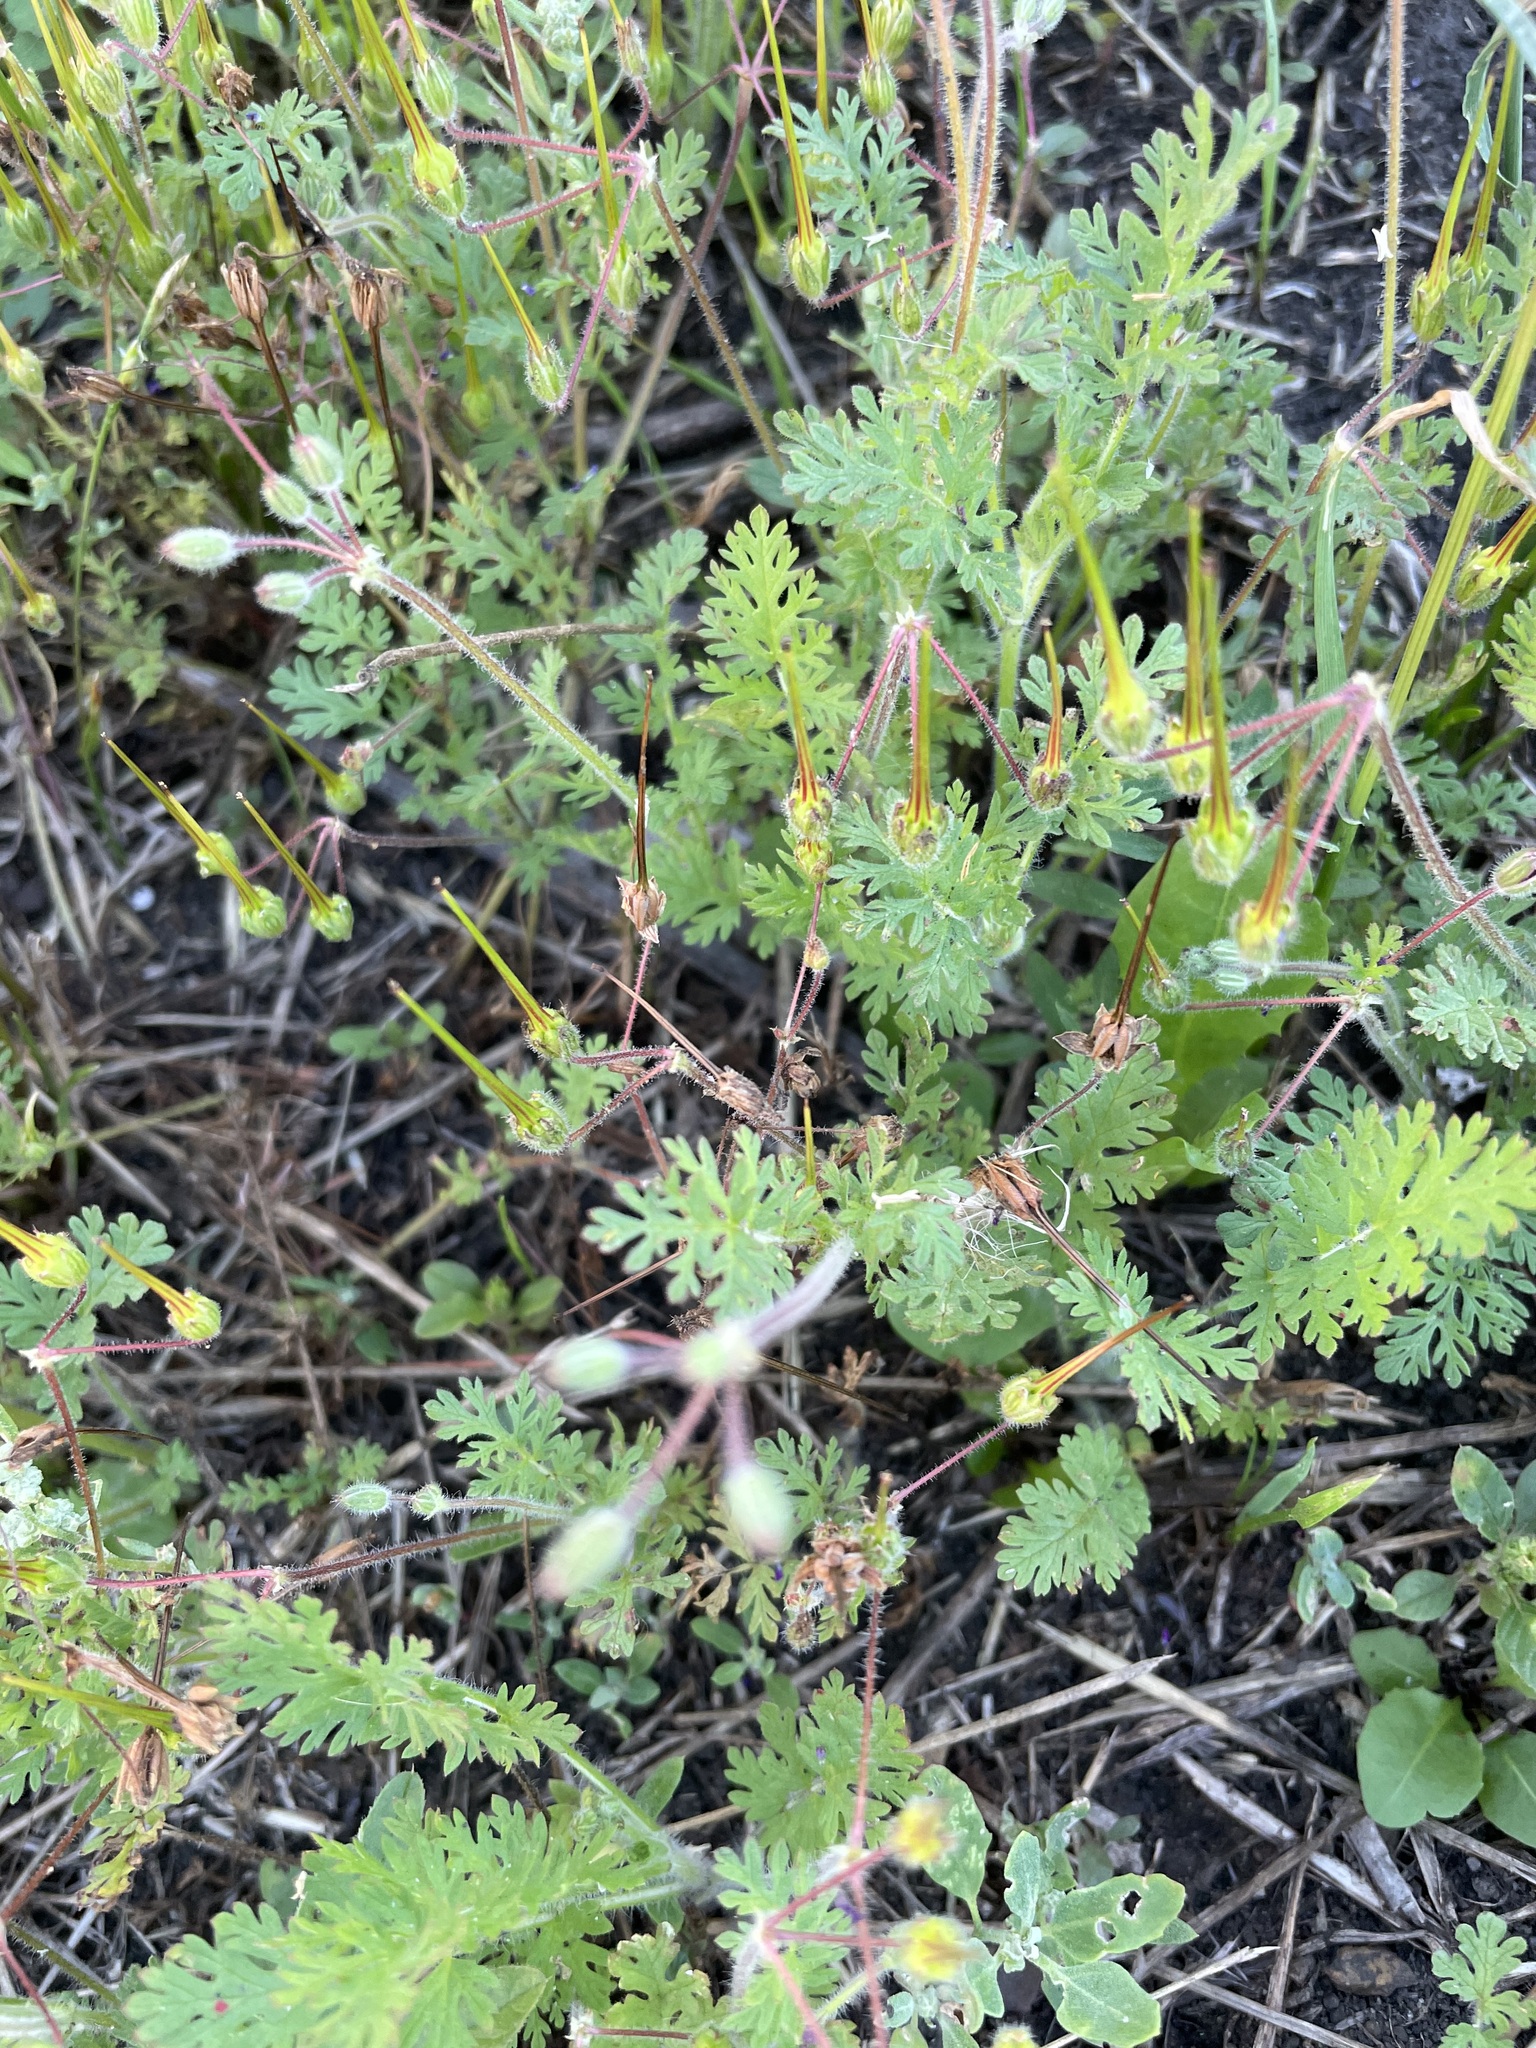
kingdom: Plantae
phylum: Tracheophyta
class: Magnoliopsida
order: Geraniales
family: Geraniaceae
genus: Erodium
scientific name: Erodium cicutarium
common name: Common stork's-bill
